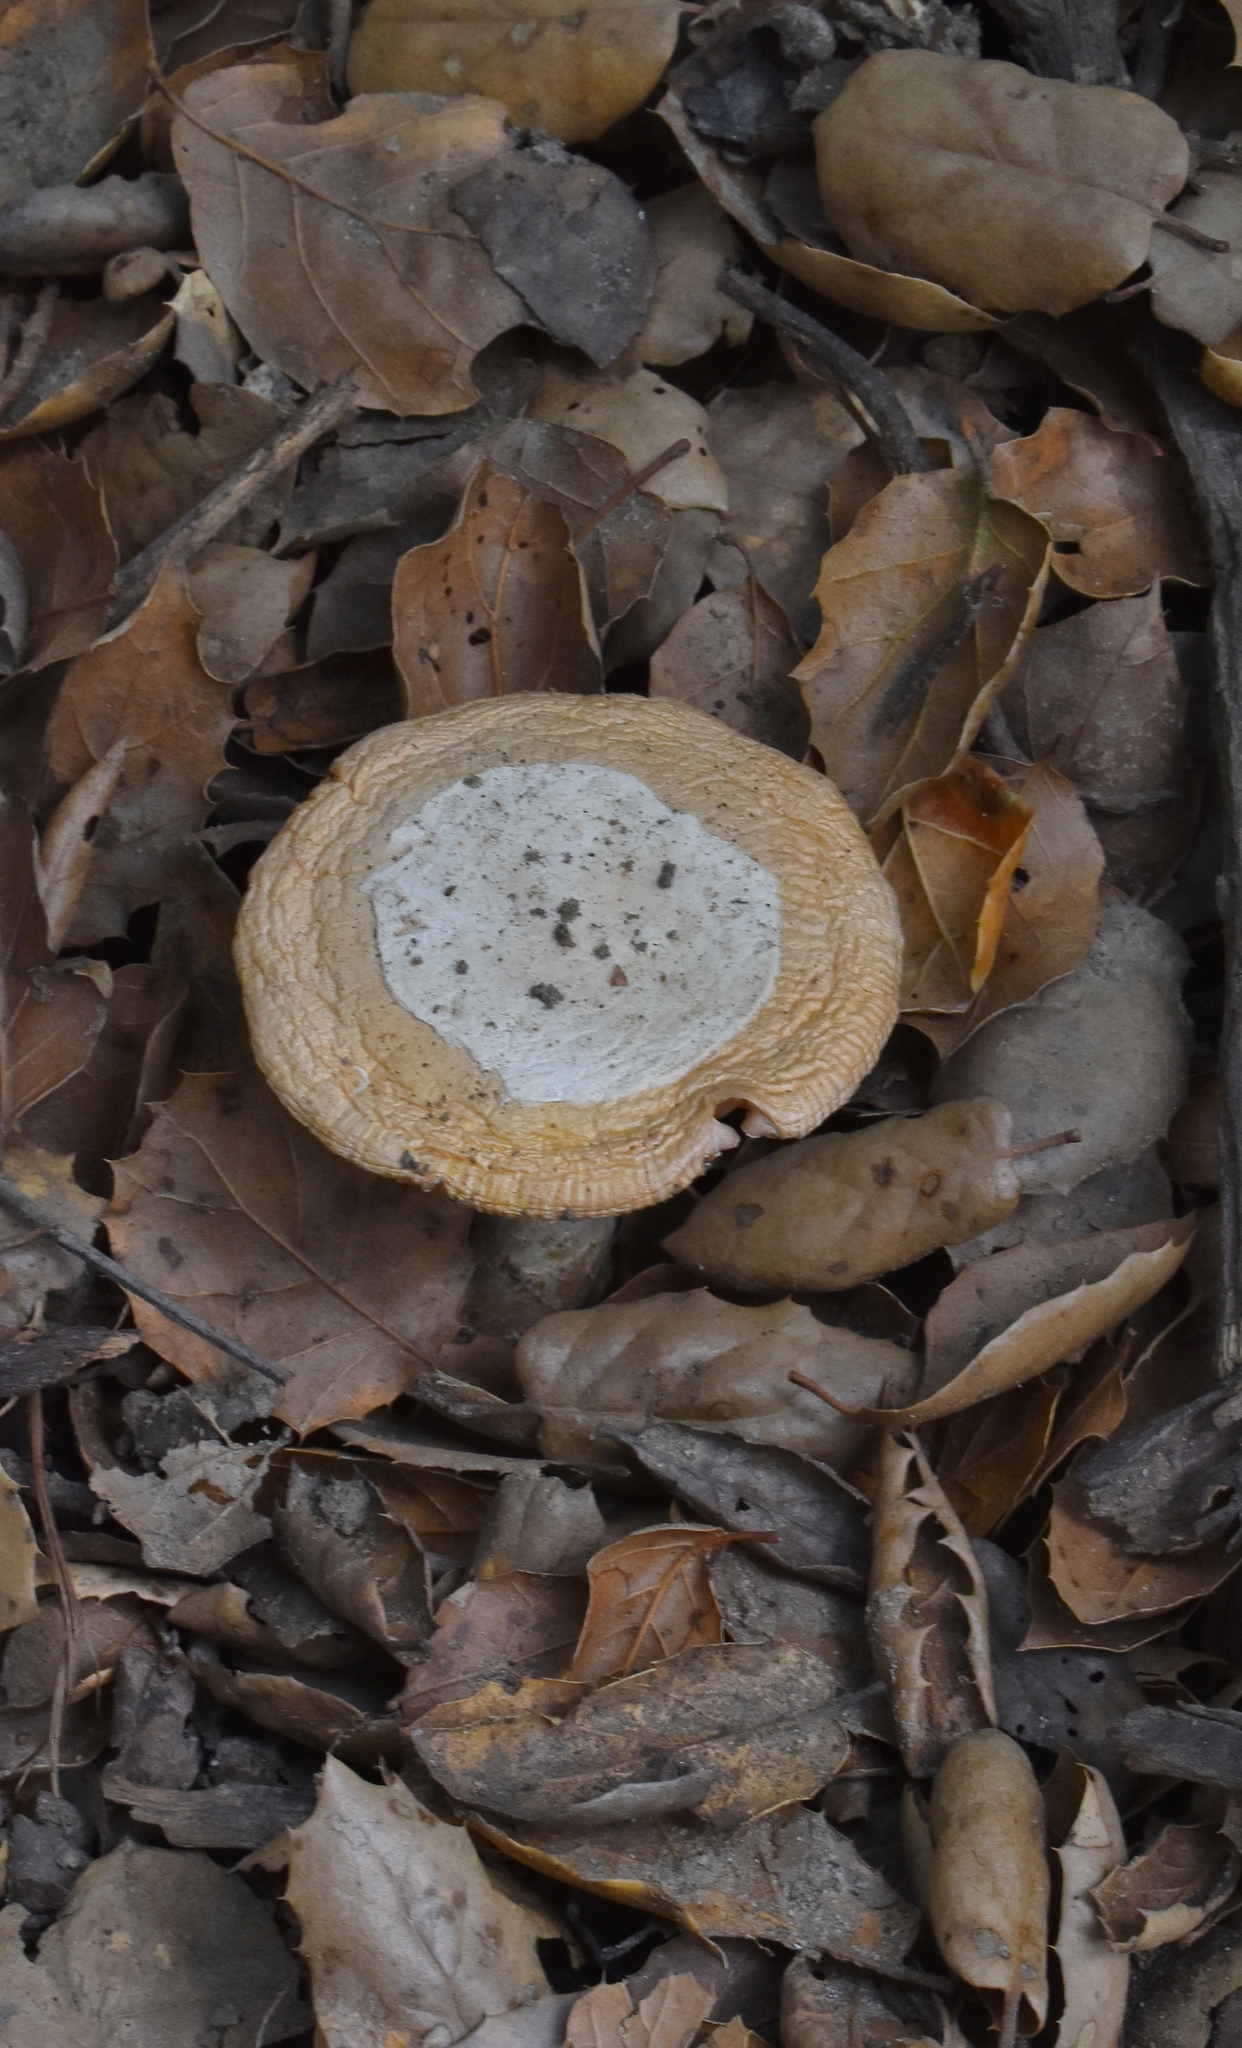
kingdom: Fungi
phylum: Basidiomycota
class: Agaricomycetes
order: Agaricales
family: Amanitaceae
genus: Amanita
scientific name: Amanita velosa
